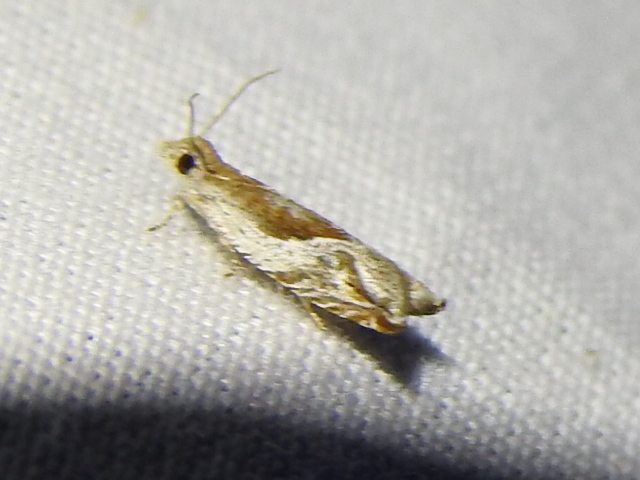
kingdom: Animalia
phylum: Arthropoda
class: Insecta
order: Lepidoptera
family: Tortricidae
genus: Ancylis
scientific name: Ancylis comptana
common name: Little roller
